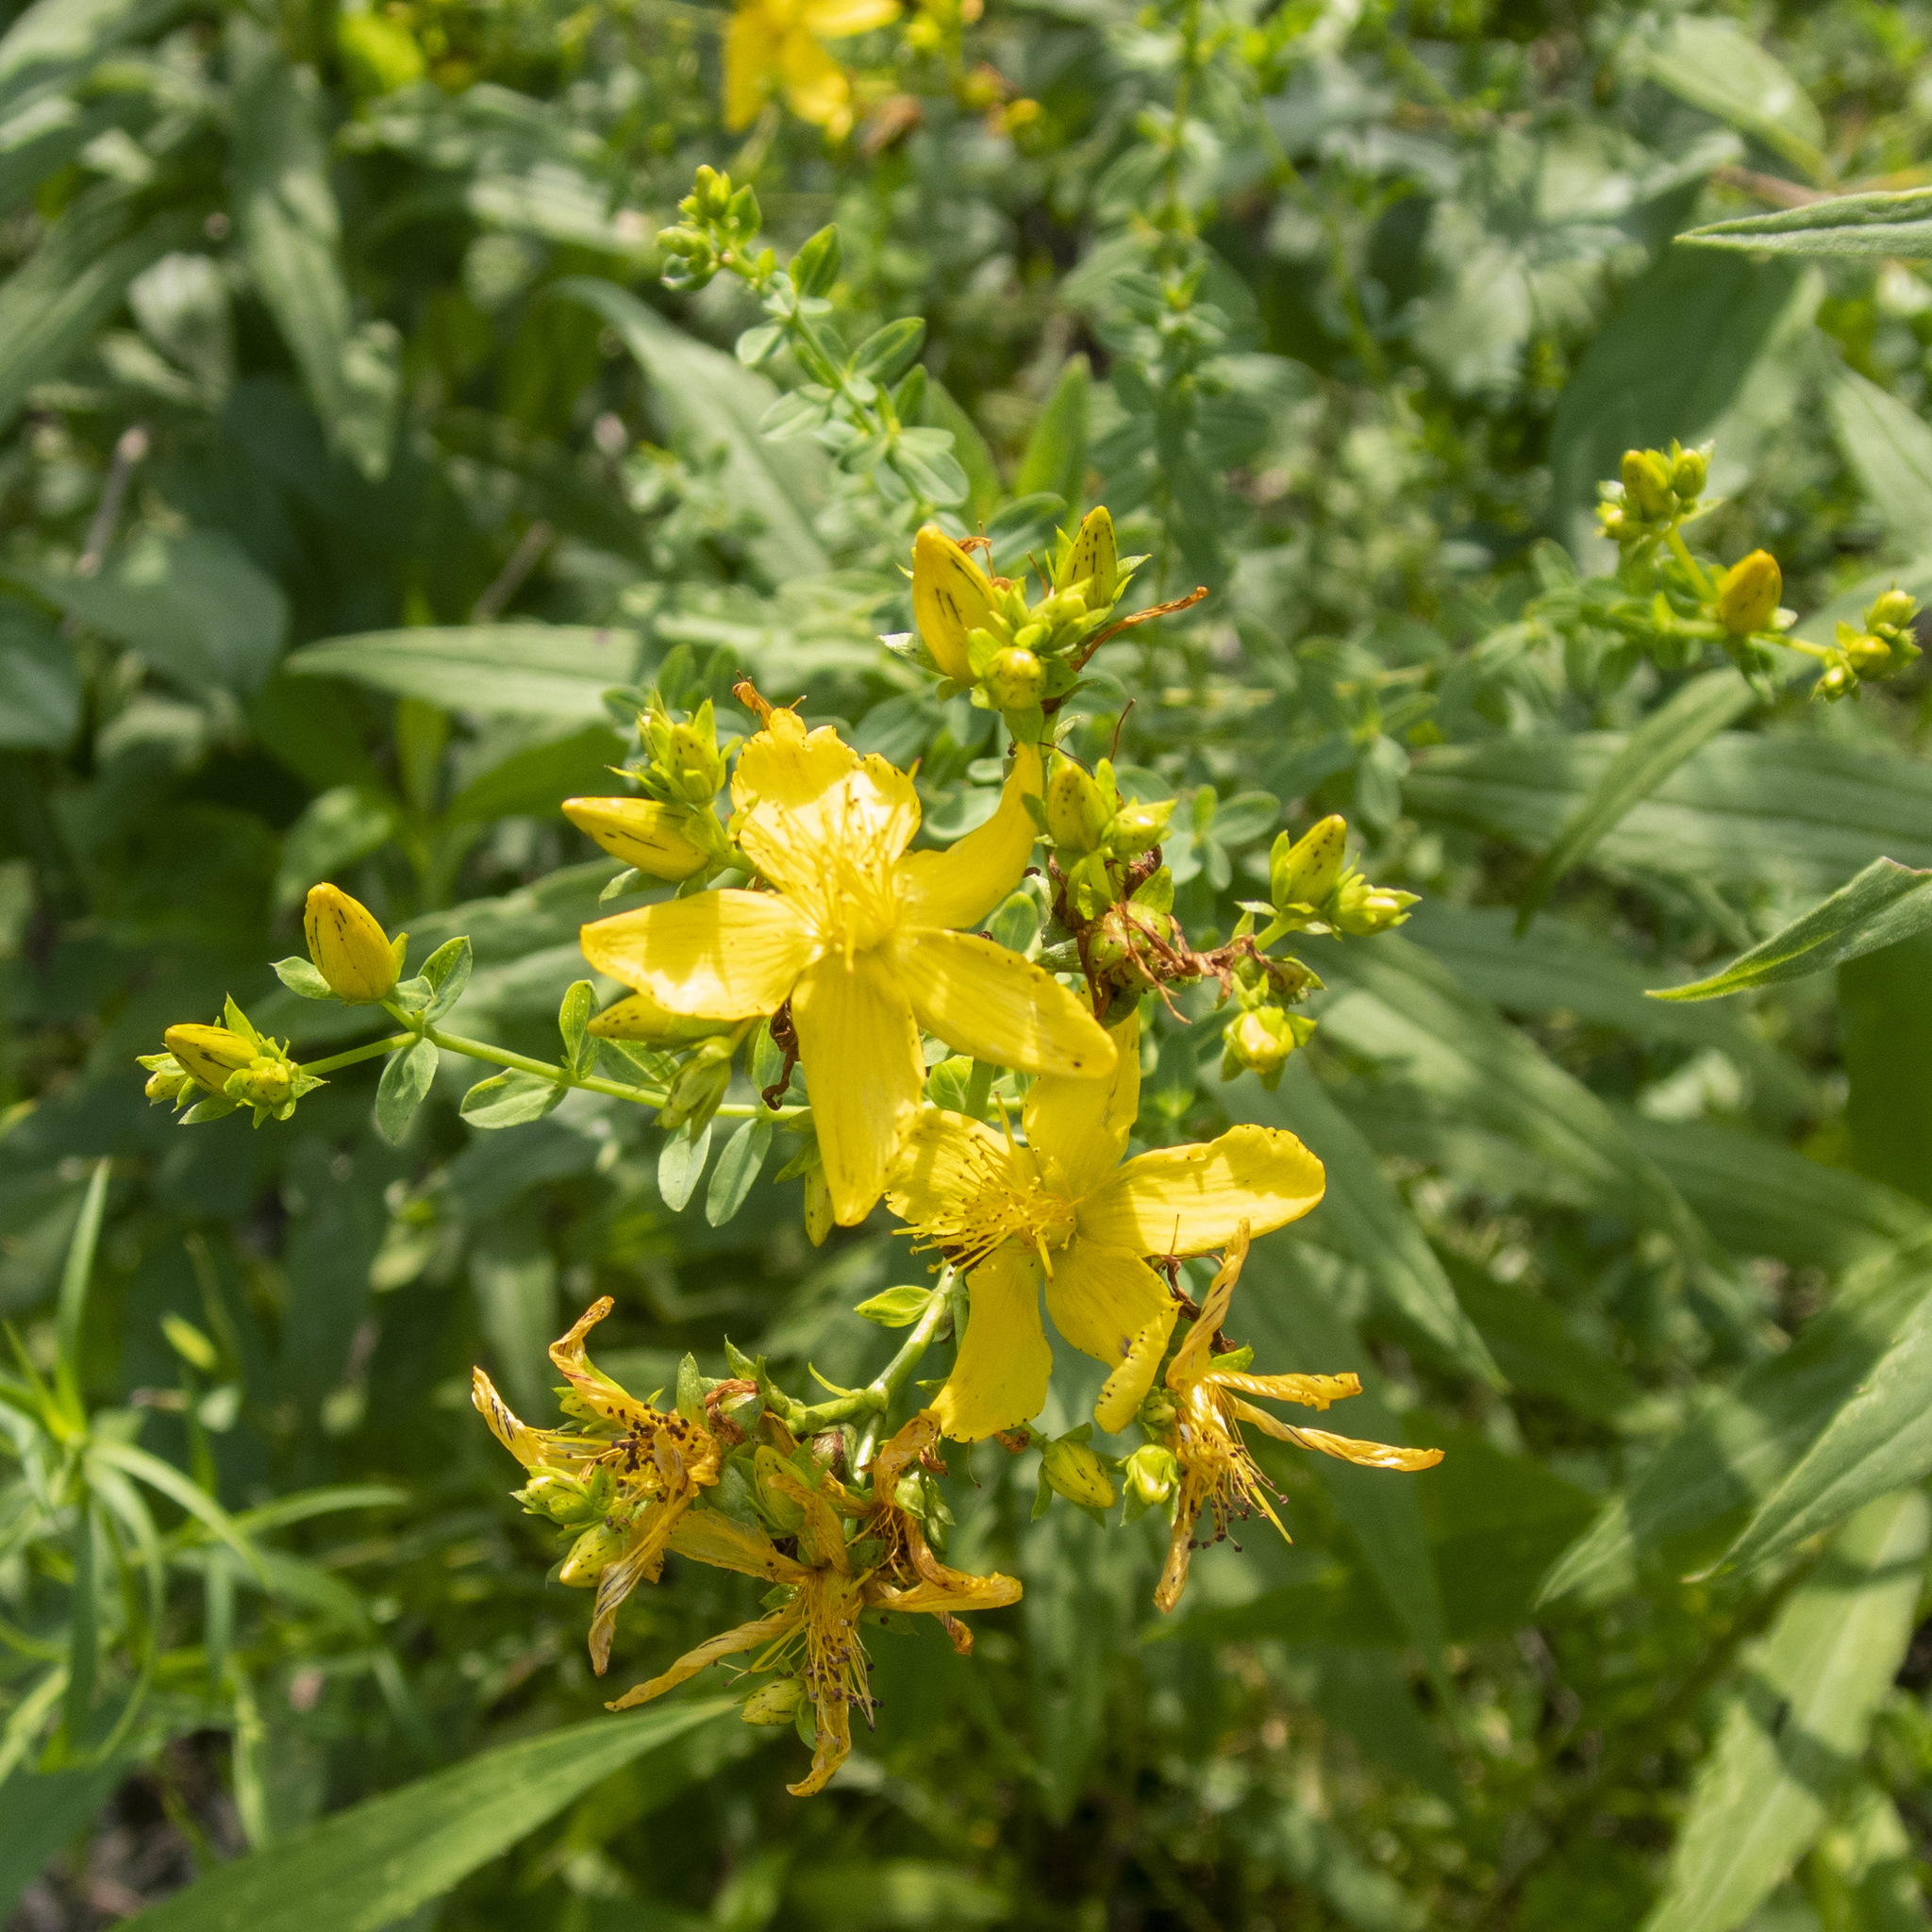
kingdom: Plantae
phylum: Tracheophyta
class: Magnoliopsida
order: Malpighiales
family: Hypericaceae
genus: Hypericum
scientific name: Hypericum perforatum
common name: Common st. johnswort
